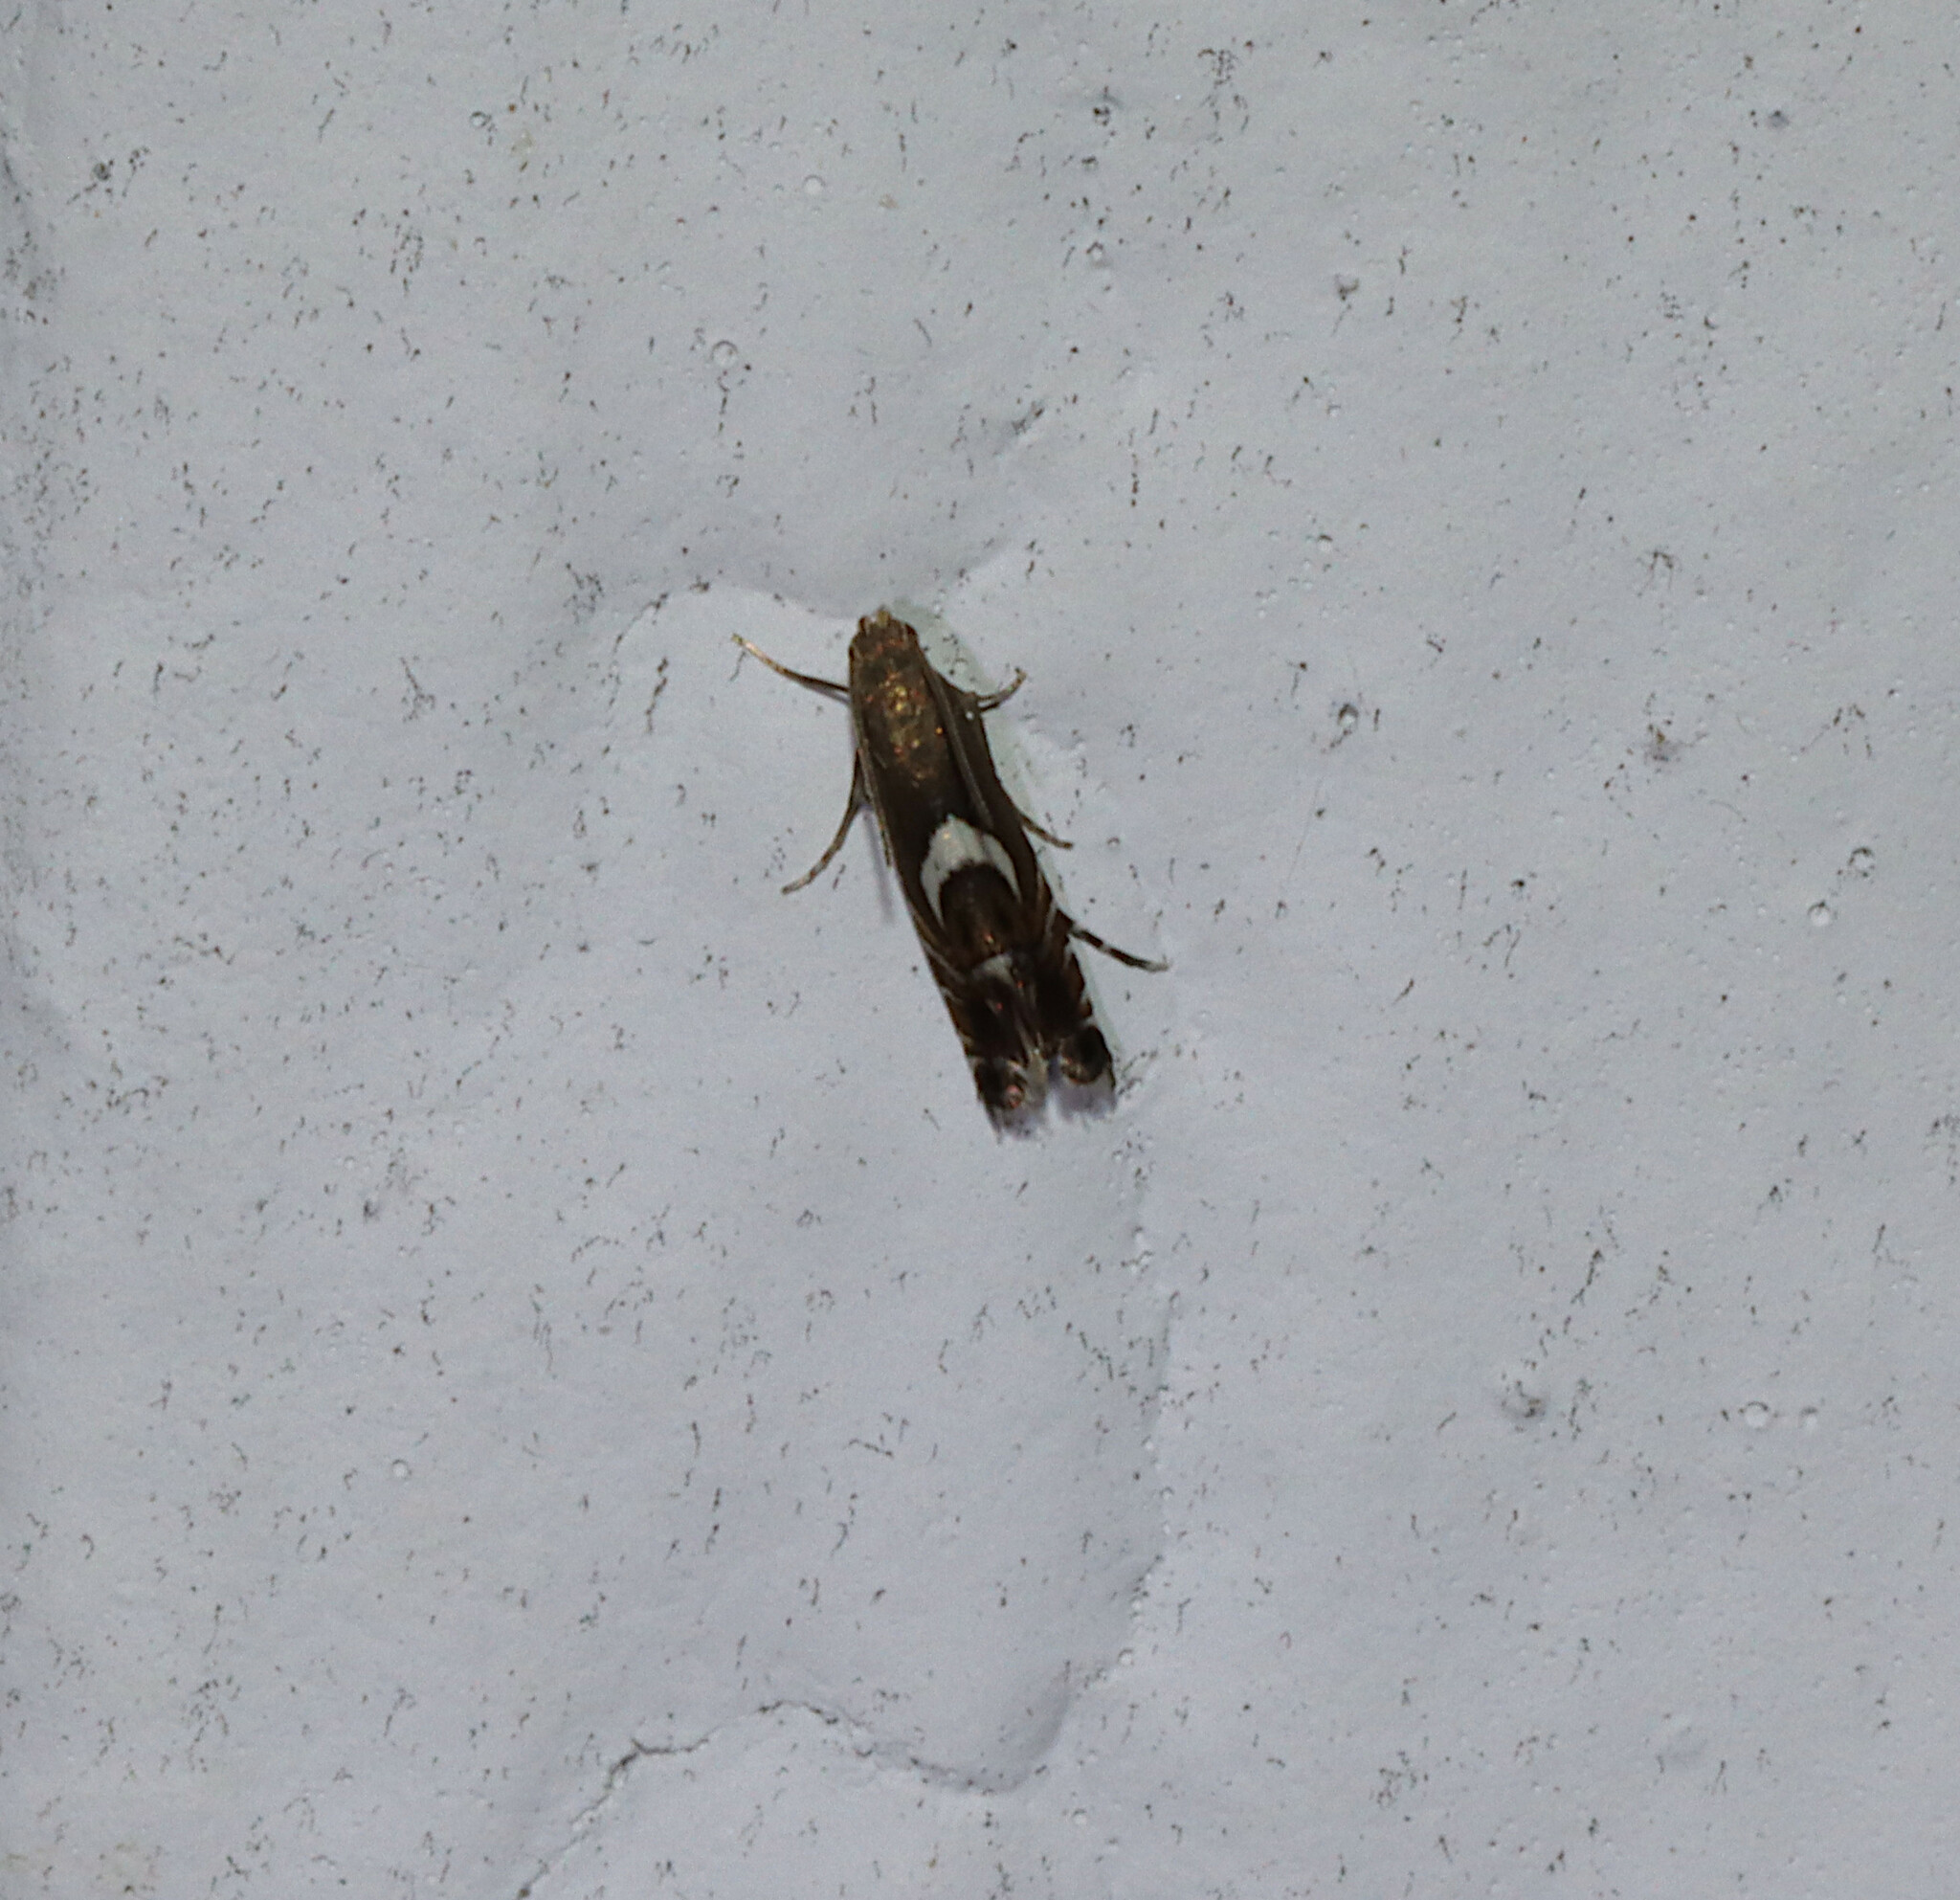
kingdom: Animalia
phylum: Arthropoda
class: Insecta
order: Lepidoptera
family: Glyphipterigidae
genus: Glyphipterix
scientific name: Glyphipterix Diploschizia impigritella
